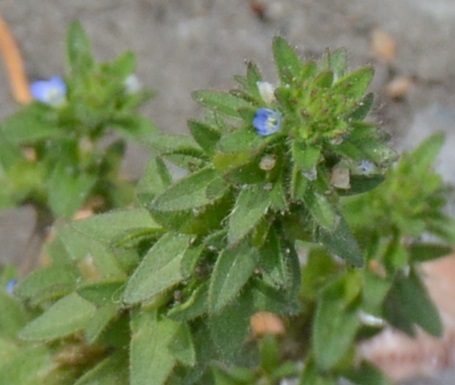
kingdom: Plantae
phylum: Tracheophyta
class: Magnoliopsida
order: Lamiales
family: Plantaginaceae
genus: Veronica
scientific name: Veronica arvensis
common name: Corn speedwell
